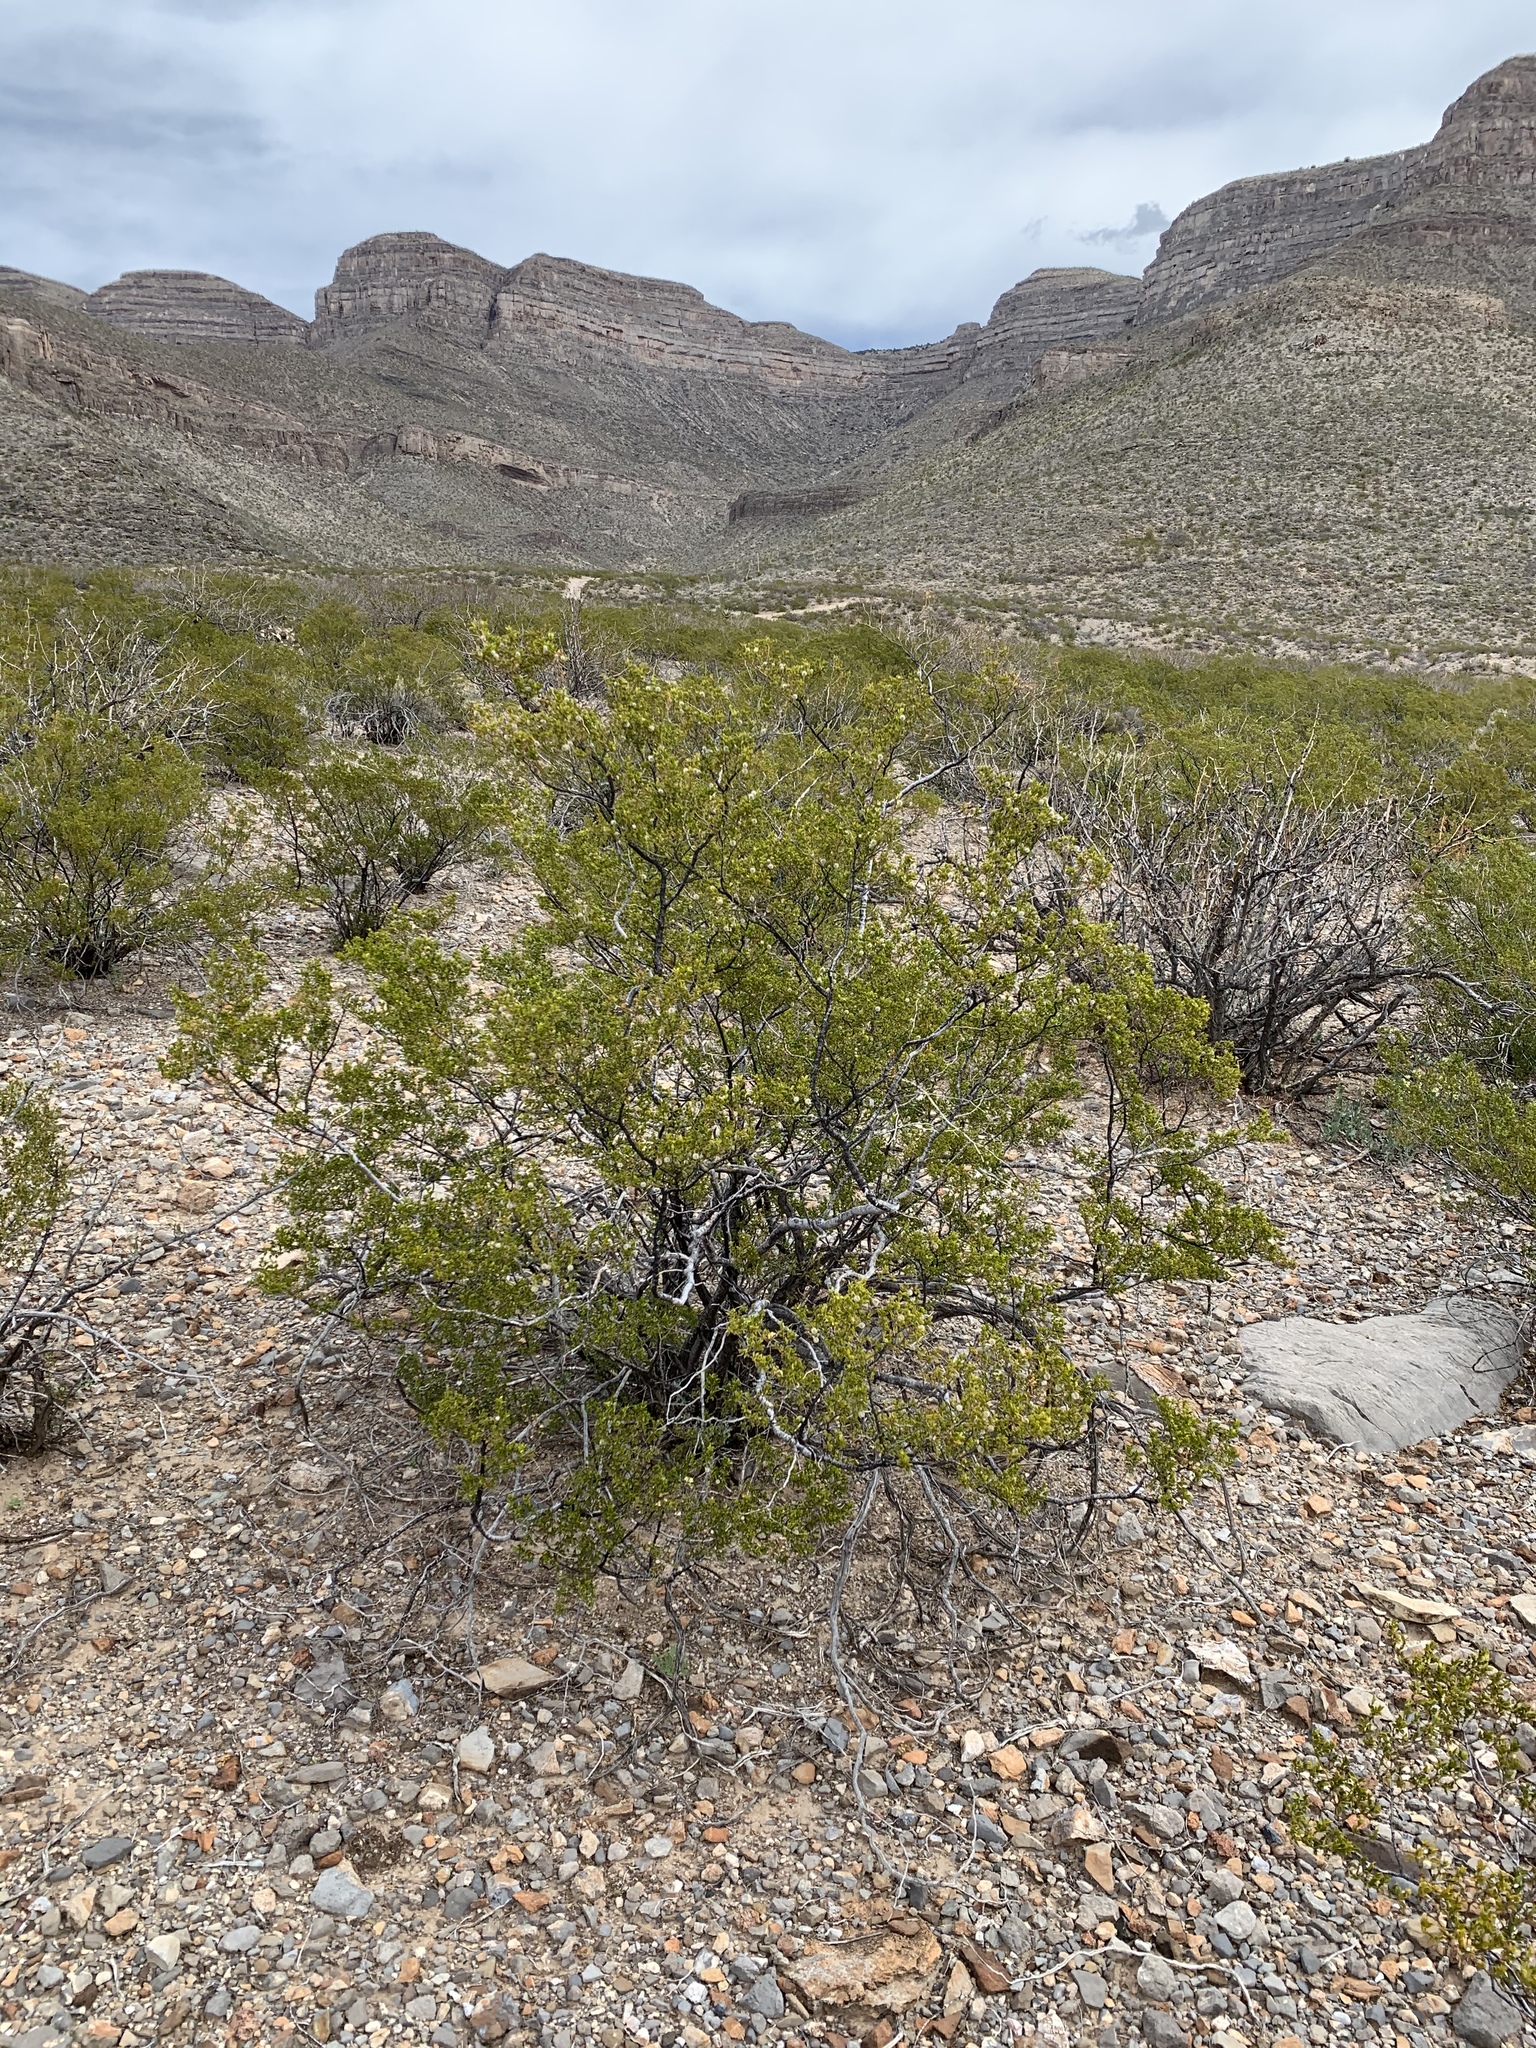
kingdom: Plantae
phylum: Tracheophyta
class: Magnoliopsida
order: Zygophyllales
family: Zygophyllaceae
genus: Larrea
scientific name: Larrea tridentata
